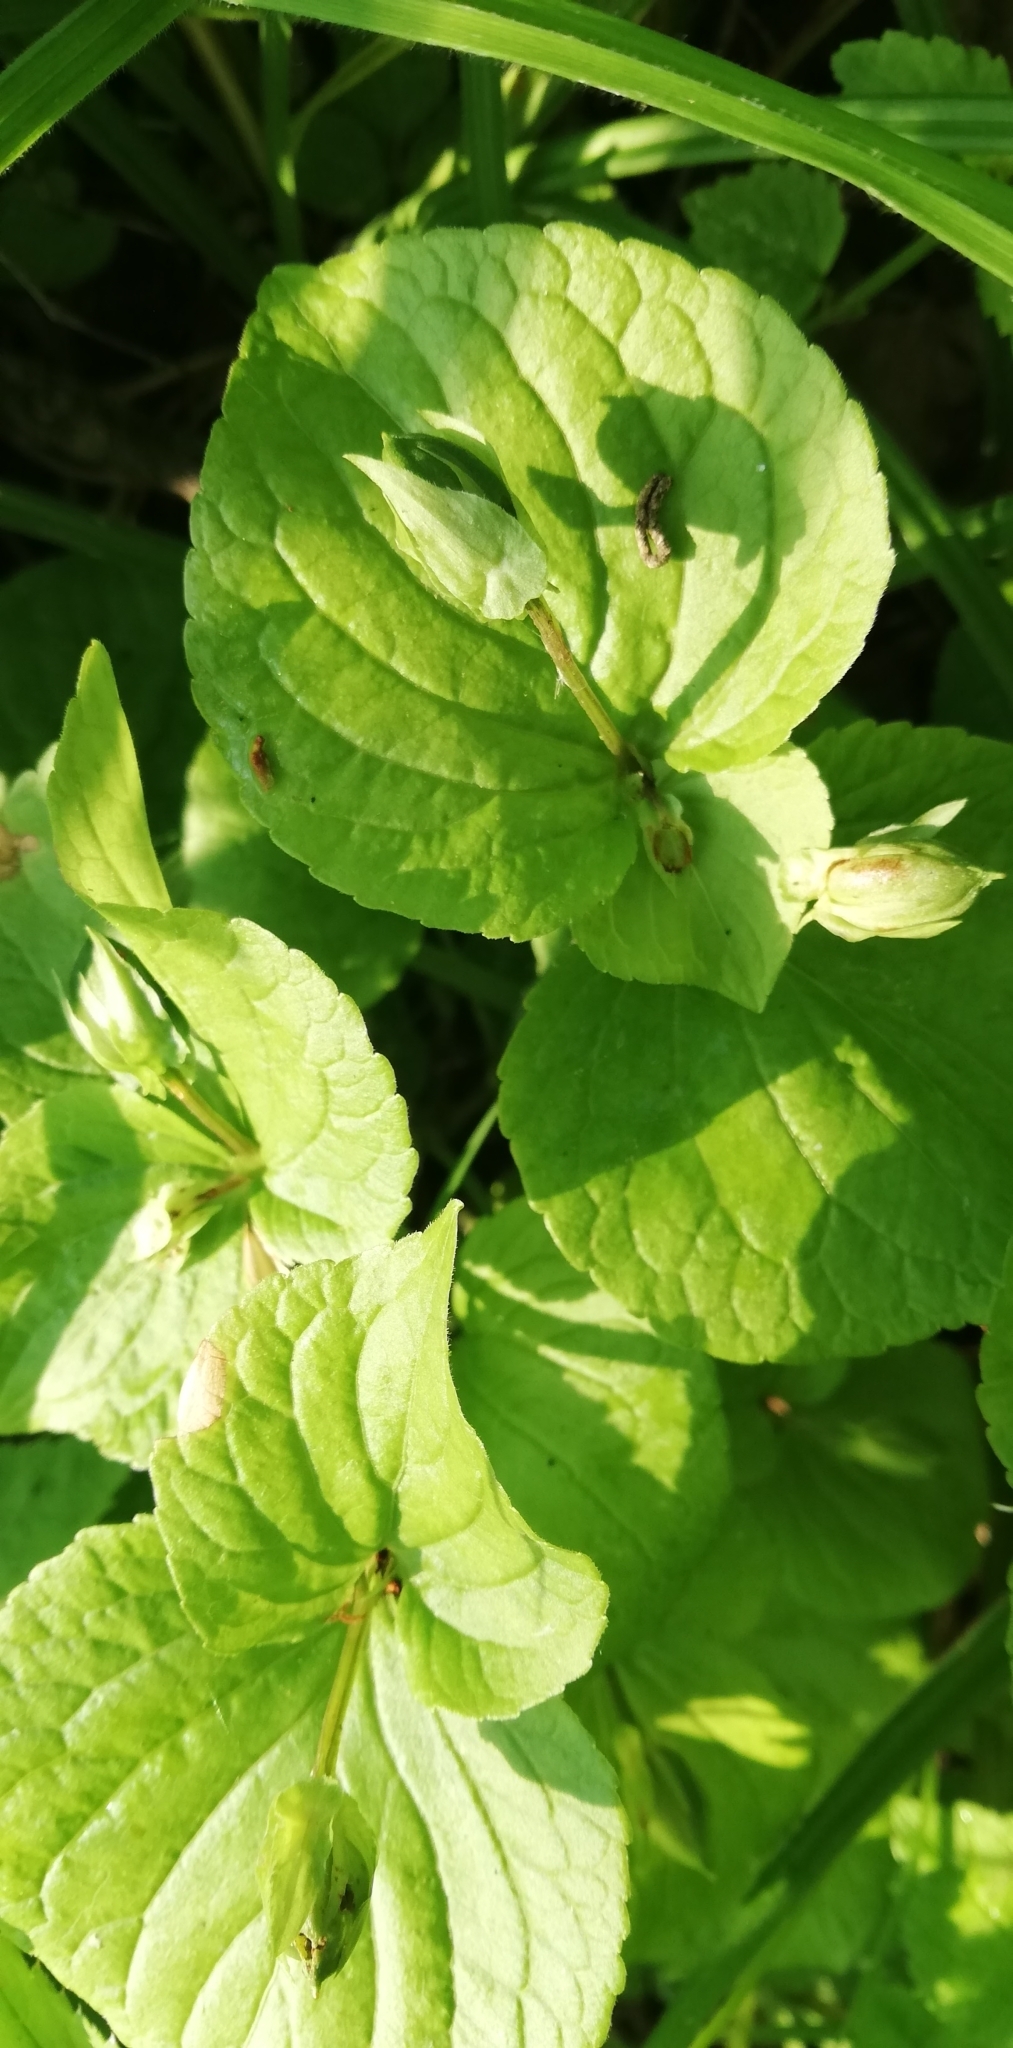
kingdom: Plantae
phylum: Tracheophyta
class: Magnoliopsida
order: Malpighiales
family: Violaceae
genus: Viola
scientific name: Viola mirabilis
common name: Wonder violet
